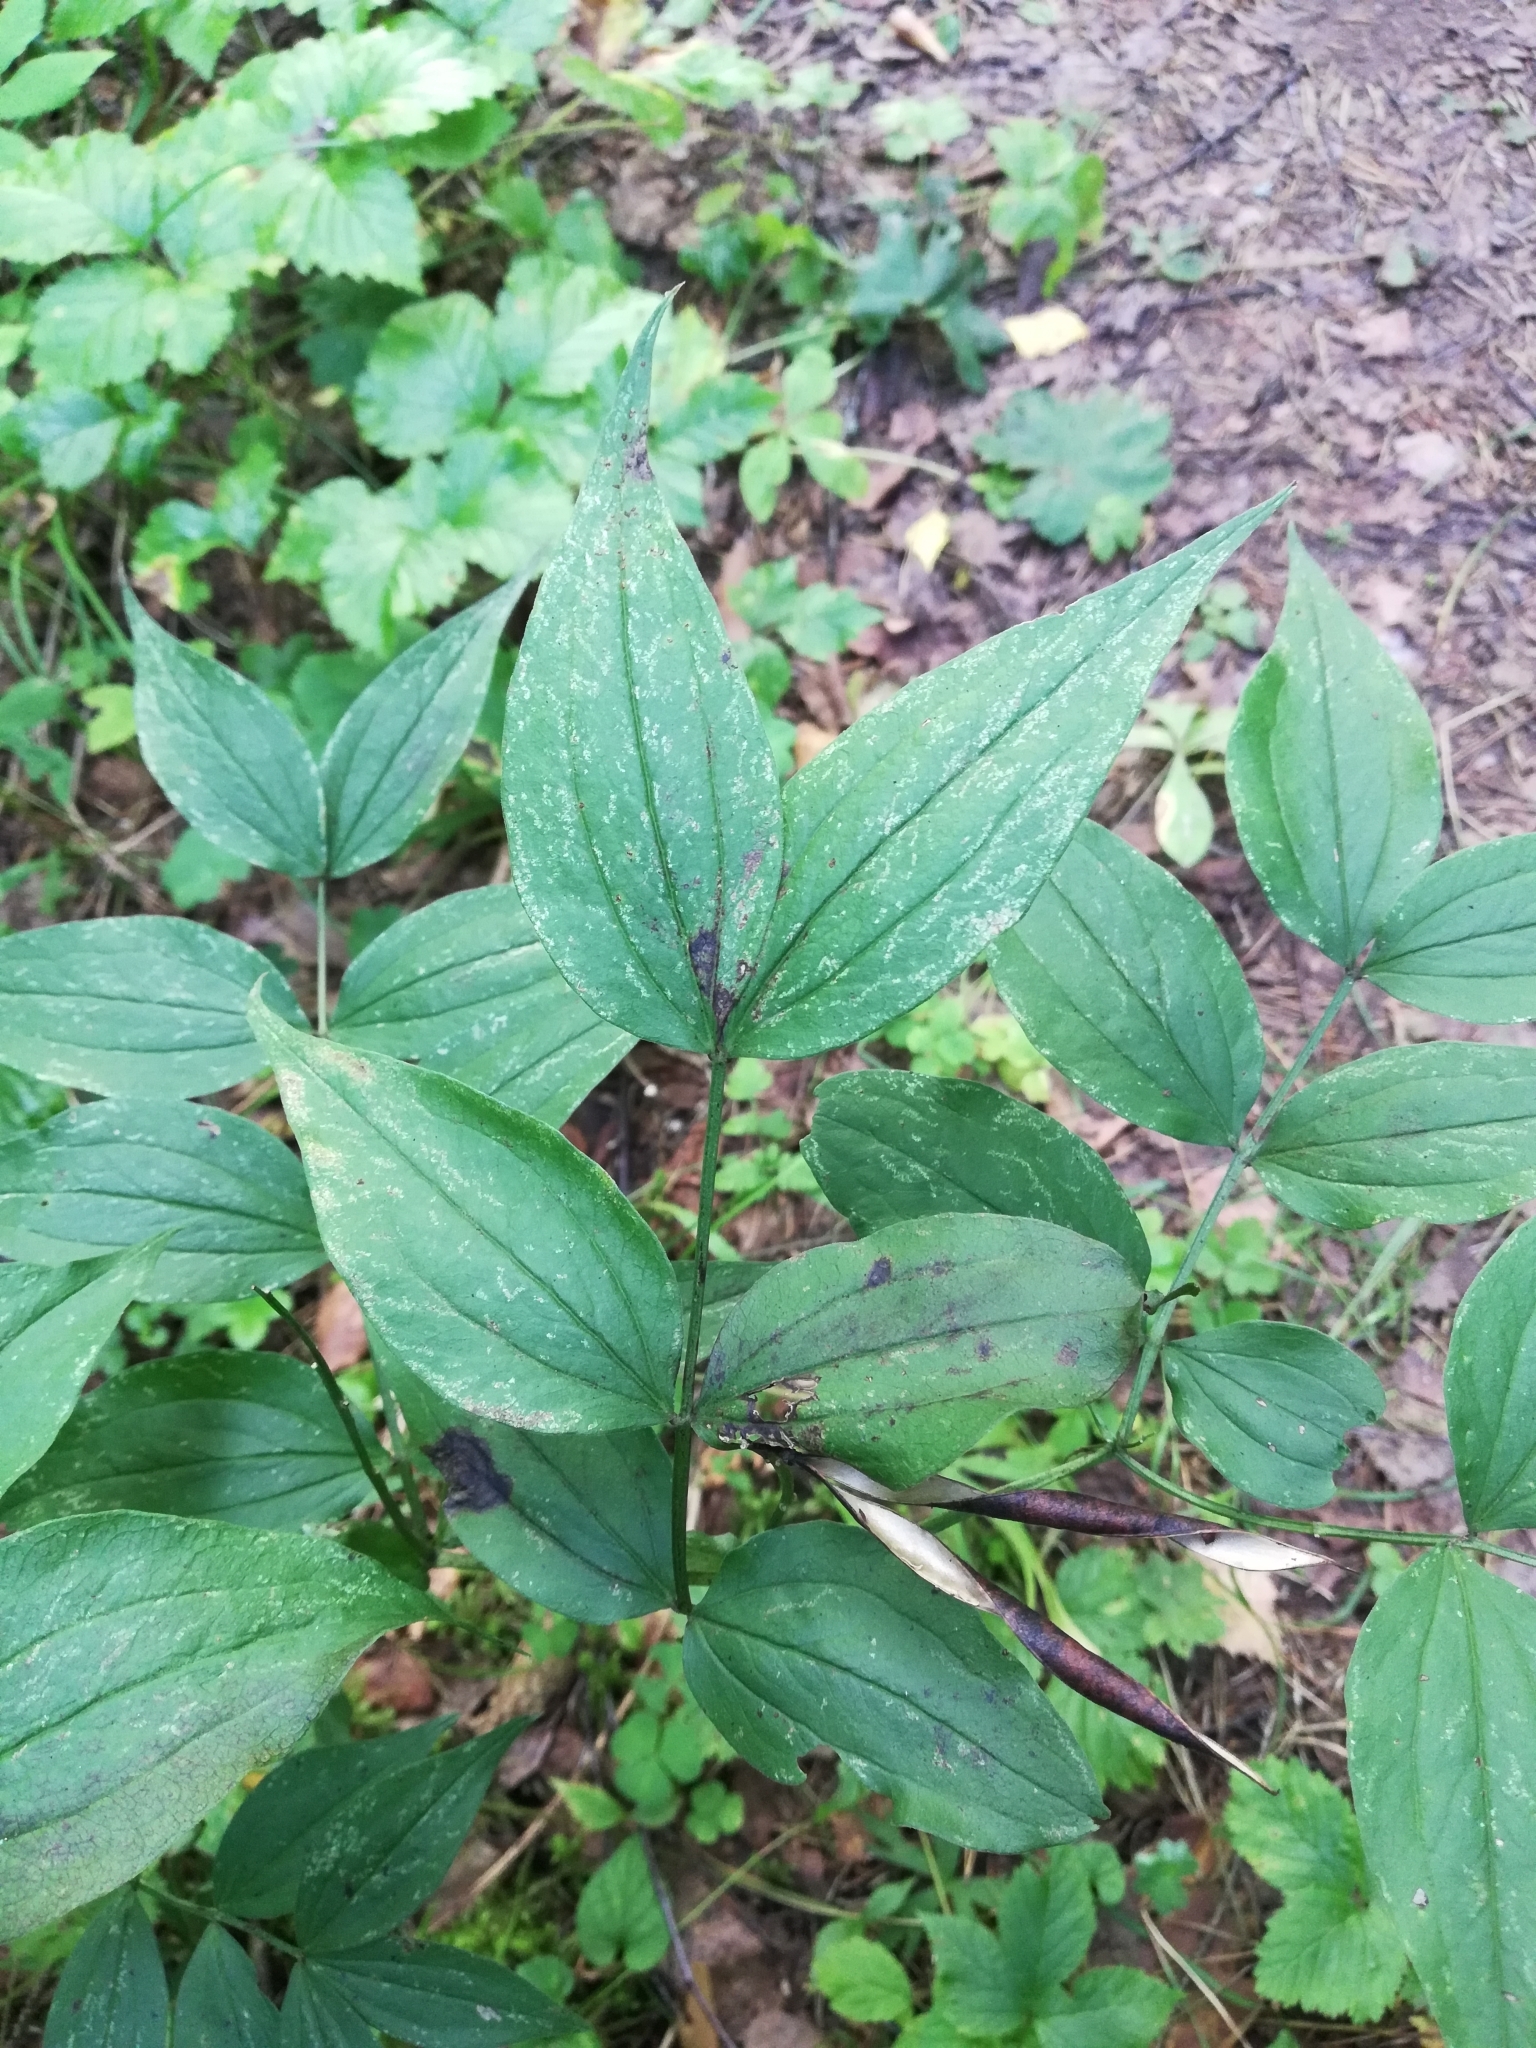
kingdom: Plantae
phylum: Tracheophyta
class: Magnoliopsida
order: Fabales
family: Fabaceae
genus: Lathyrus
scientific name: Lathyrus vernus
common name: Spring pea
